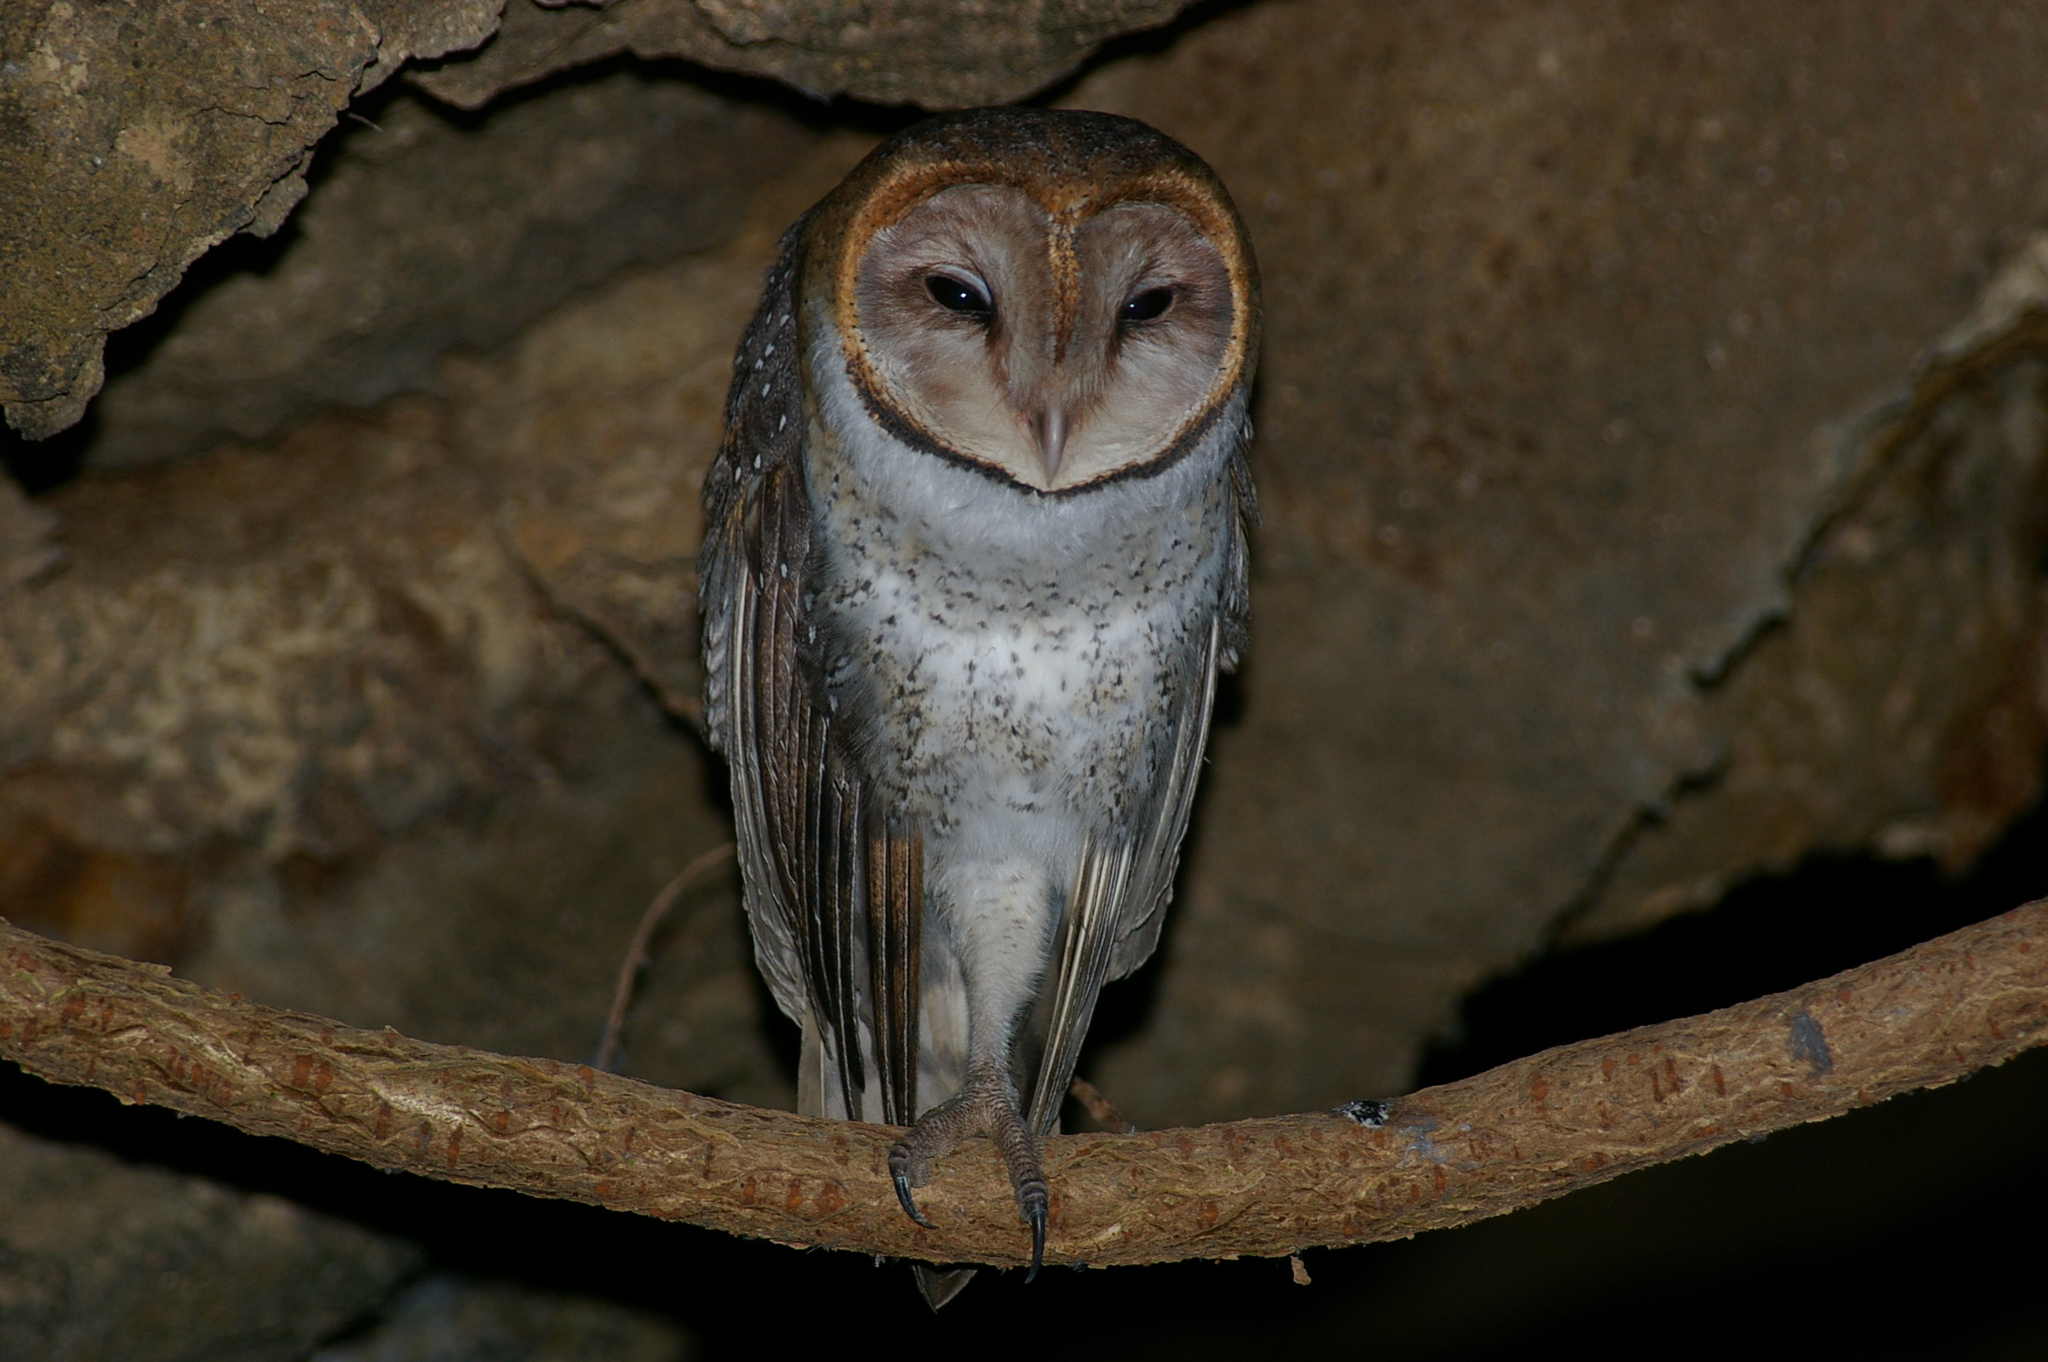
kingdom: Animalia
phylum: Chordata
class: Aves
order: Strigiformes
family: Tytonidae
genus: Tyto
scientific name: Tyto furcata
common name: American barn owl
